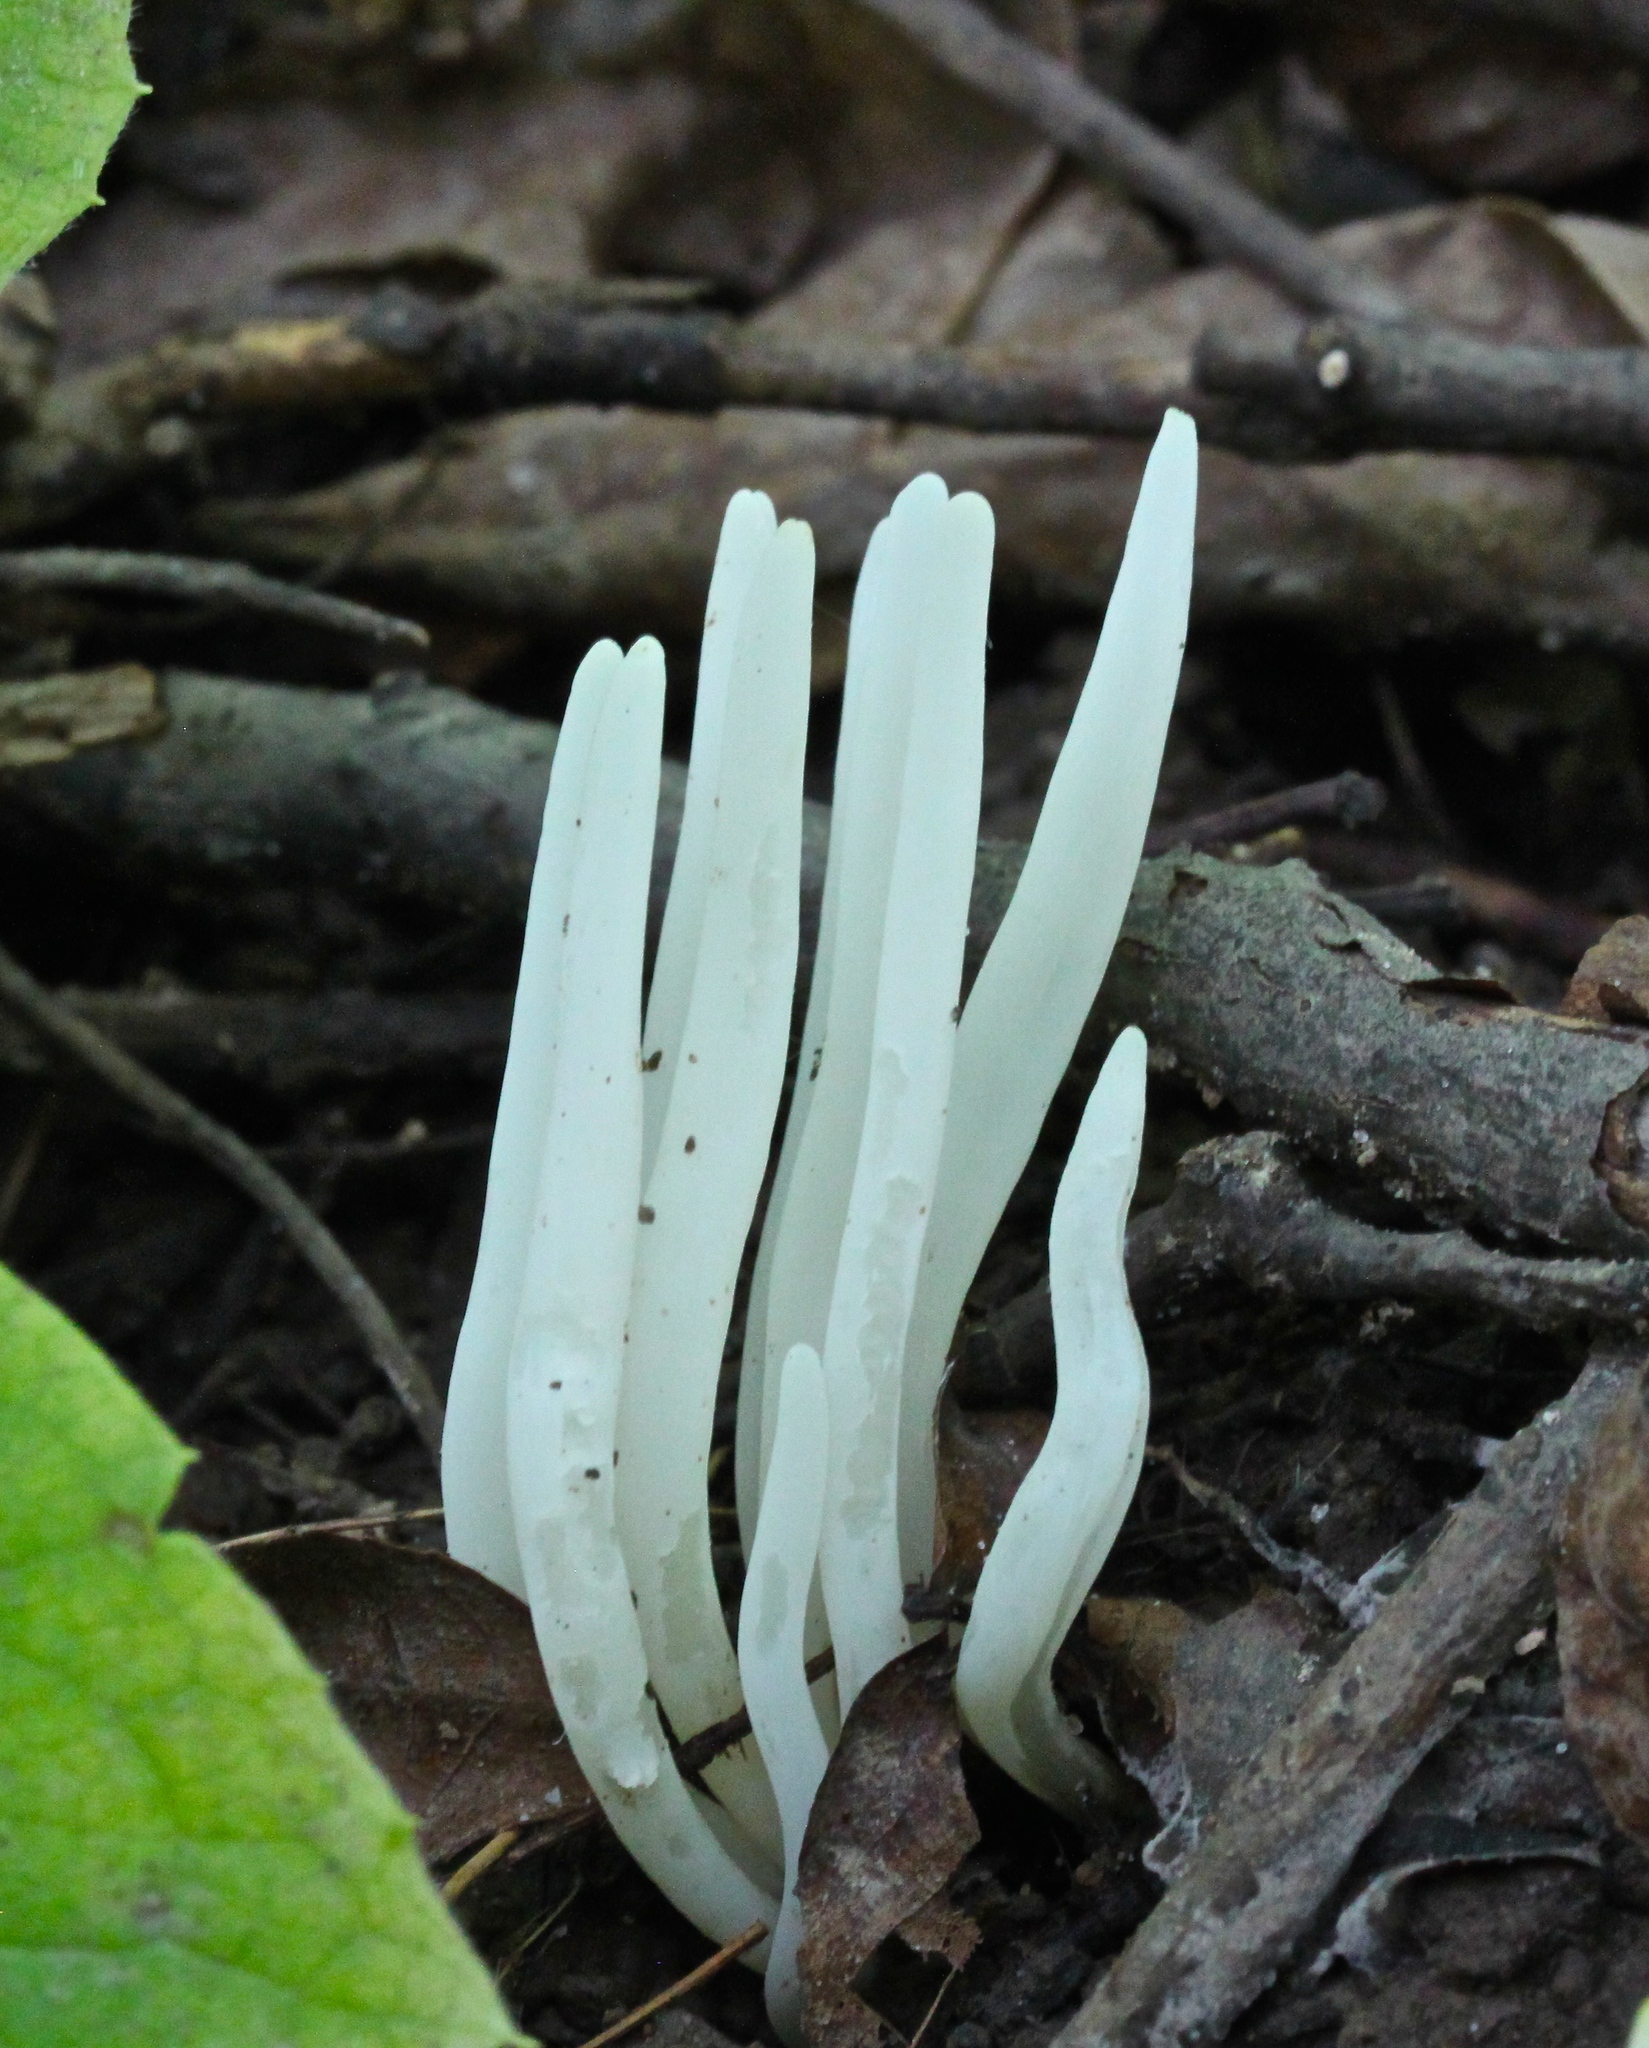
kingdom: Fungi
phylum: Basidiomycota
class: Agaricomycetes
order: Agaricales
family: Clavariaceae
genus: Clavaria
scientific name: Clavaria fragilis
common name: White spindles
